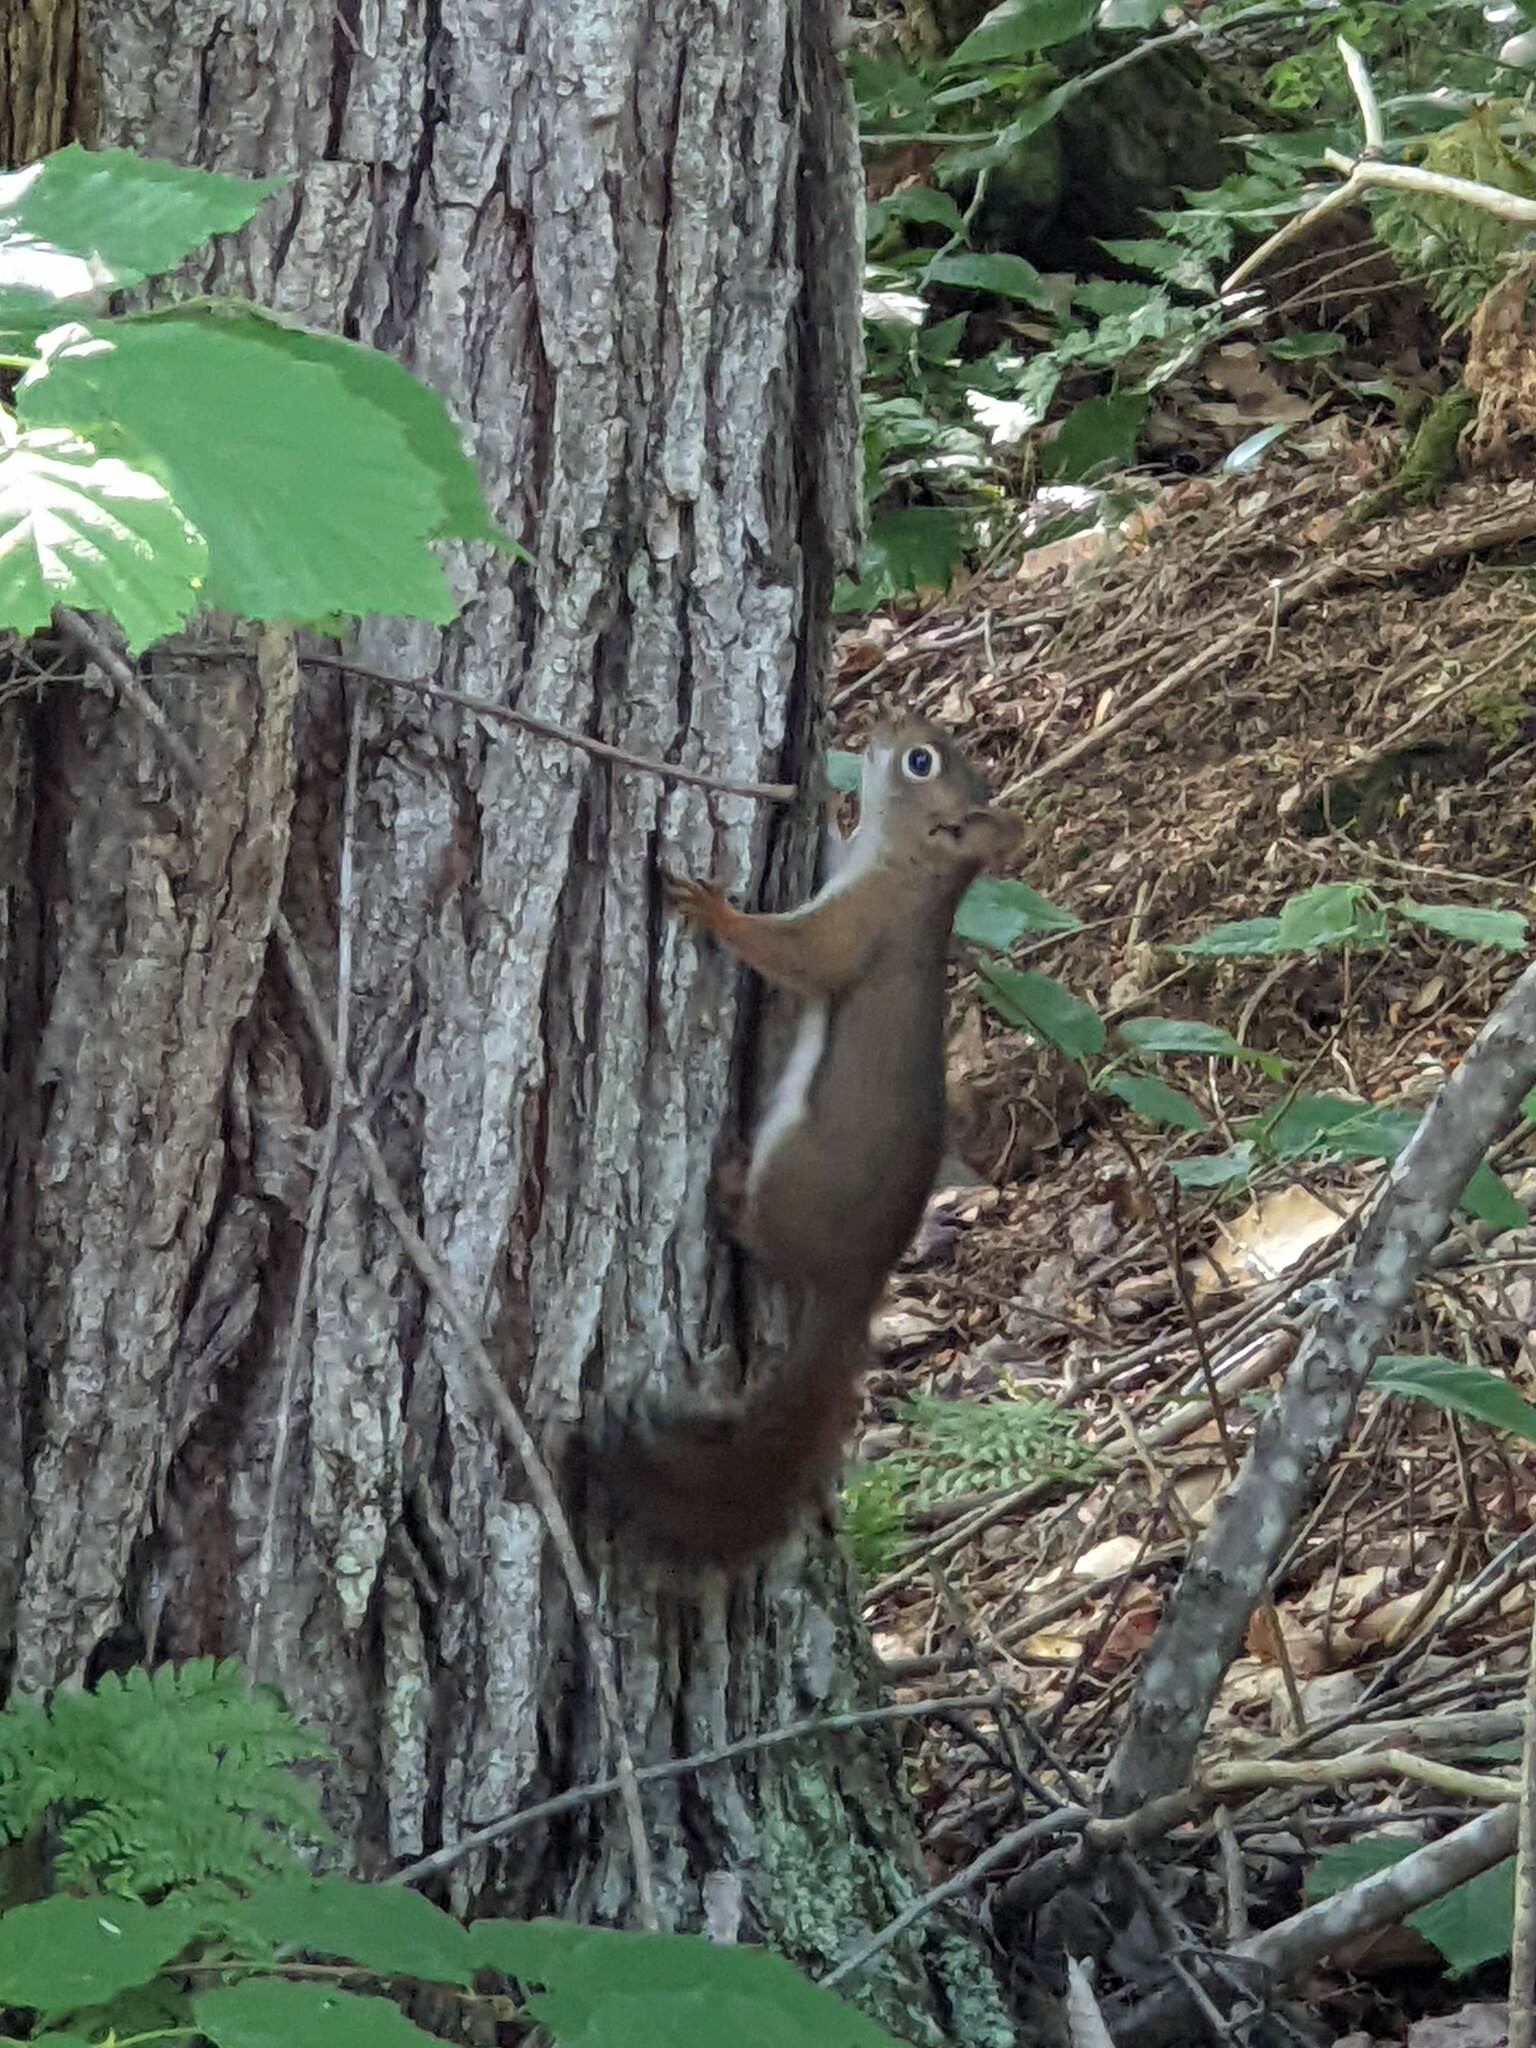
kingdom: Animalia
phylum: Chordata
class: Mammalia
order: Rodentia
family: Sciuridae
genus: Tamiasciurus
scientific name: Tamiasciurus hudsonicus
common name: Red squirrel
